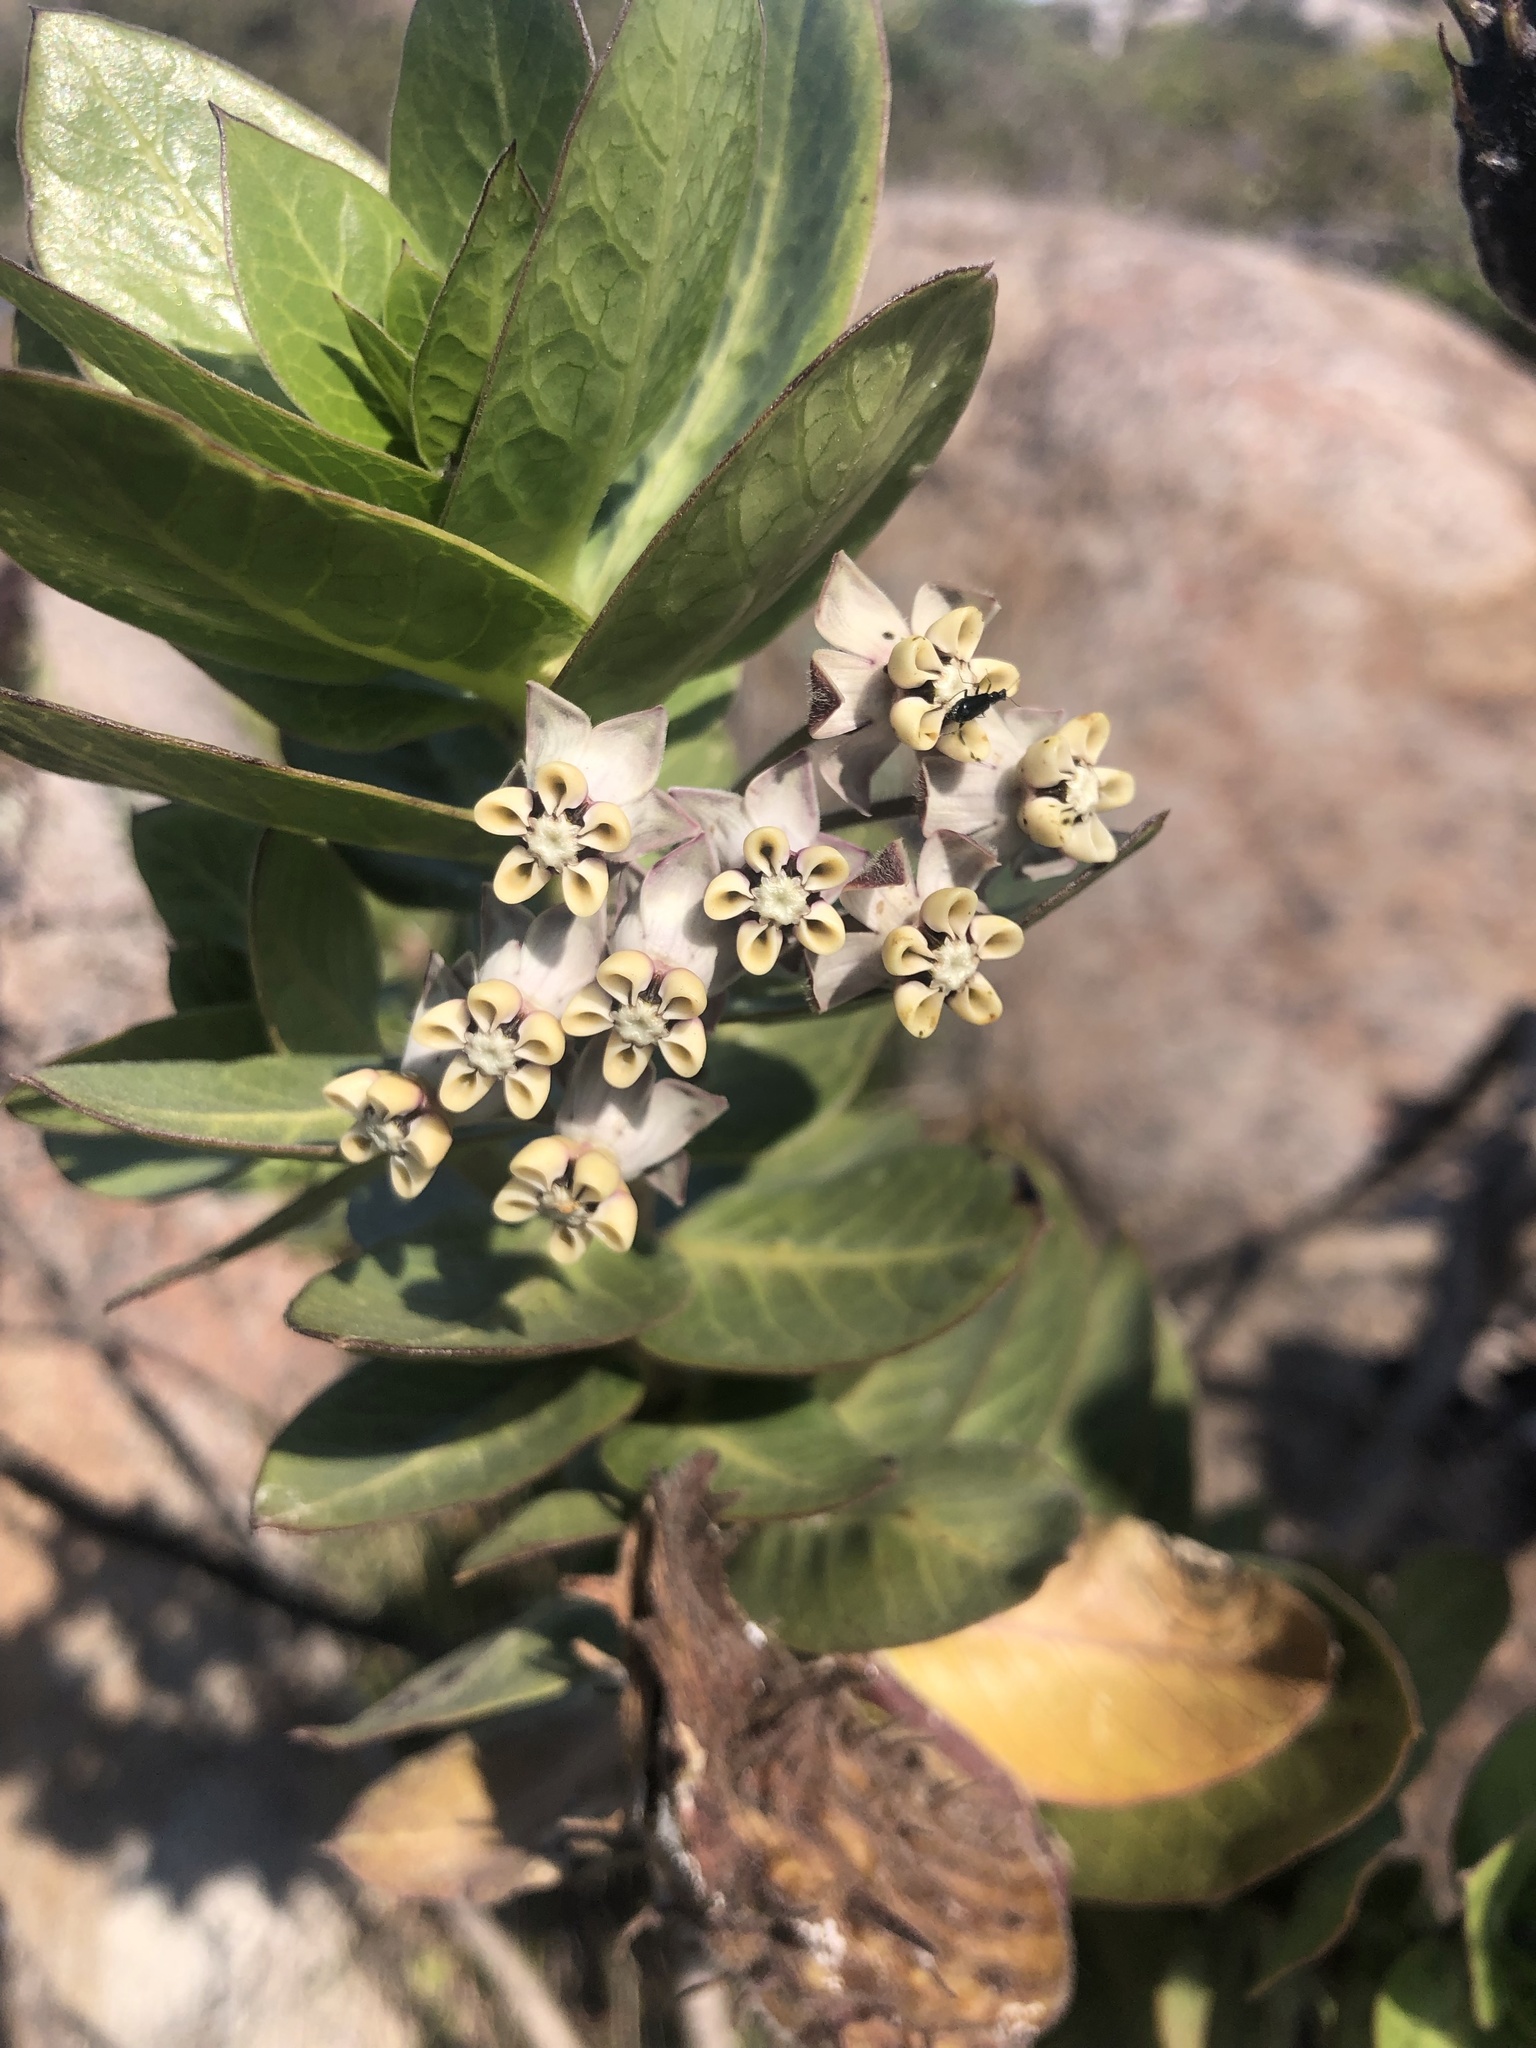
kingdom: Plantae
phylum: Tracheophyta
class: Magnoliopsida
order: Gentianales
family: Apocynaceae
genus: Gomphocarpus
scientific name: Gomphocarpus cancellatus
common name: Wild cotton
